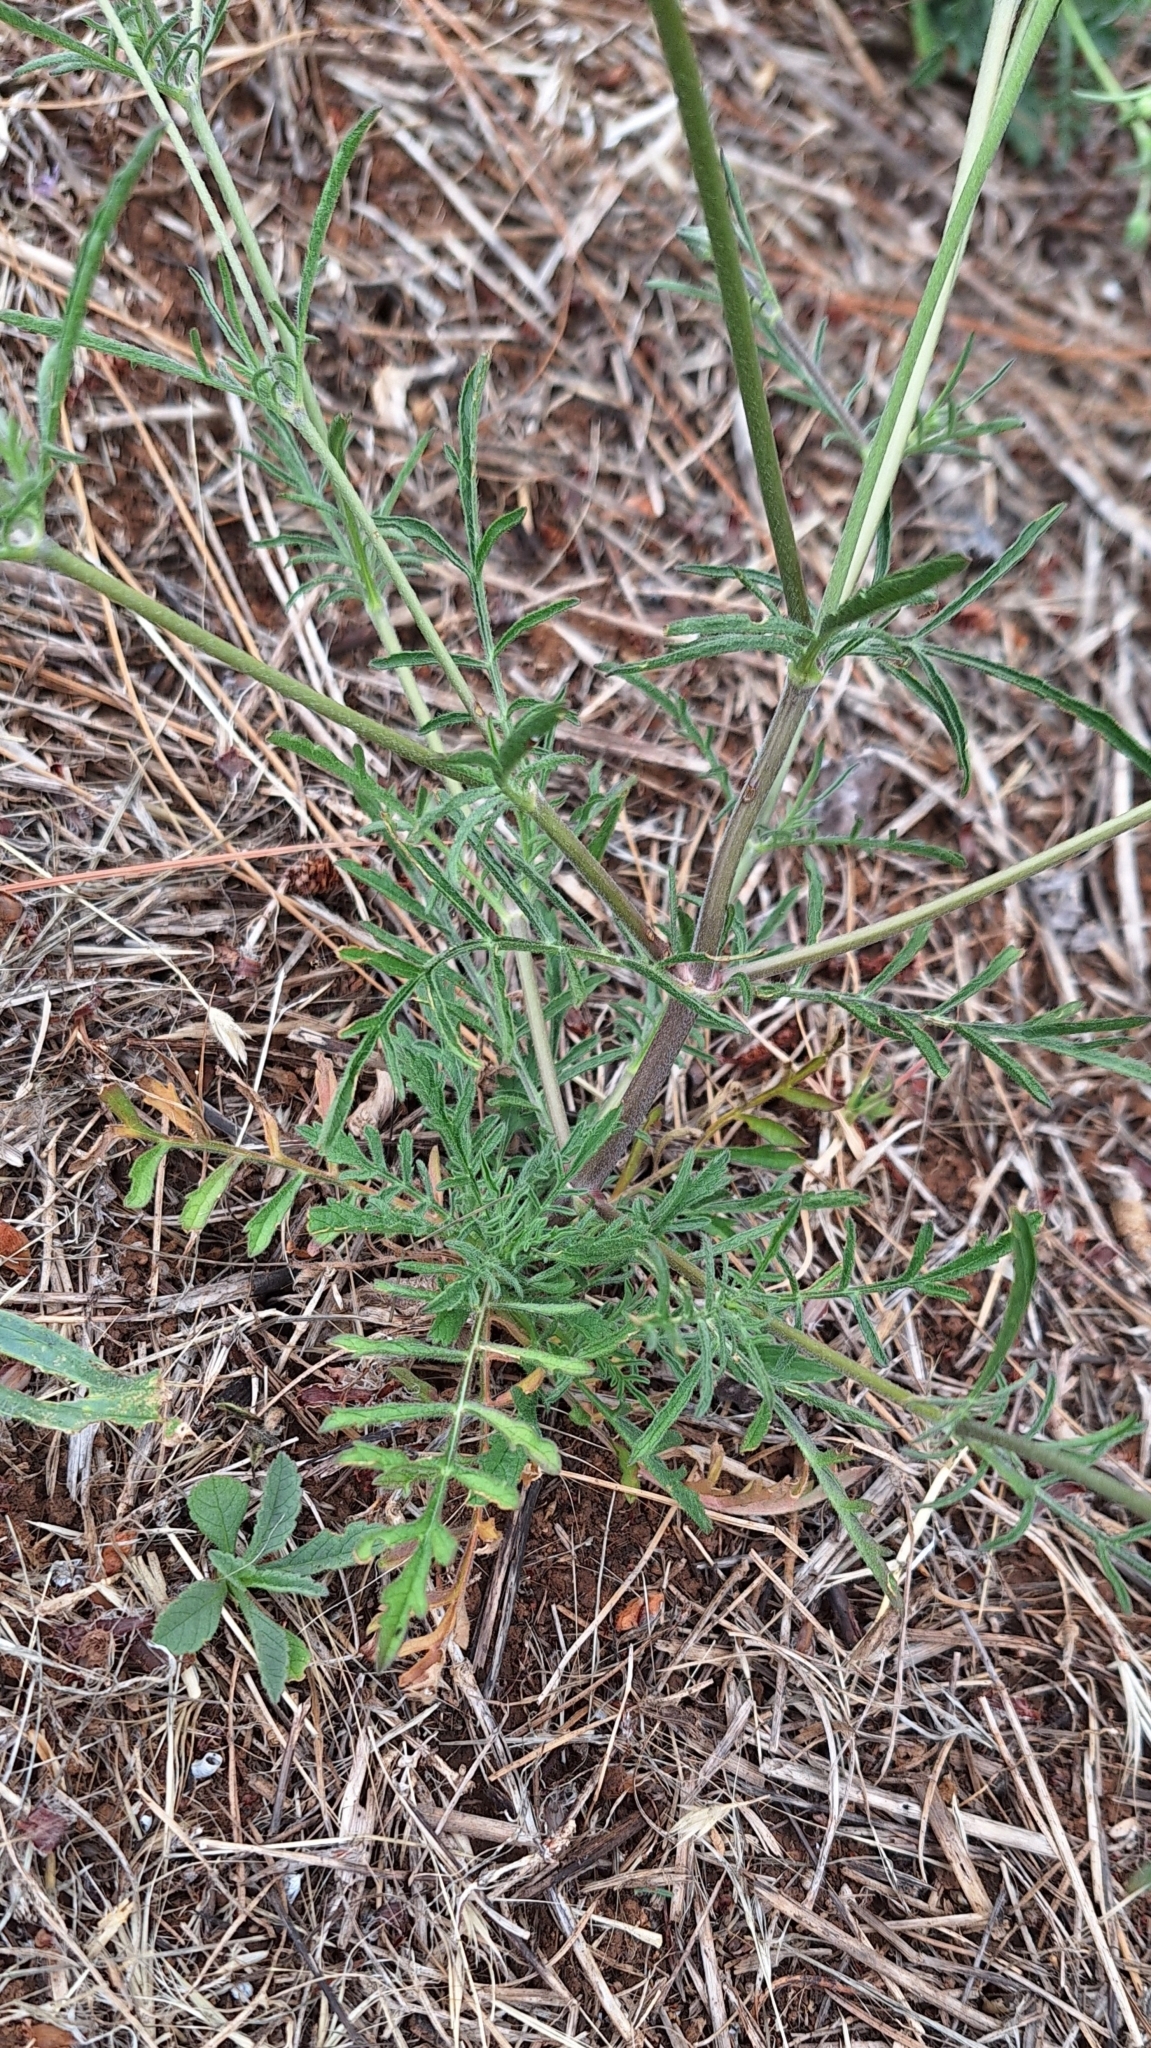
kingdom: Plantae
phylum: Tracheophyta
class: Magnoliopsida
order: Dipsacales
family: Caprifoliaceae
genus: Sixalix
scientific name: Sixalix atropurpurea
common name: Sweet scabious
